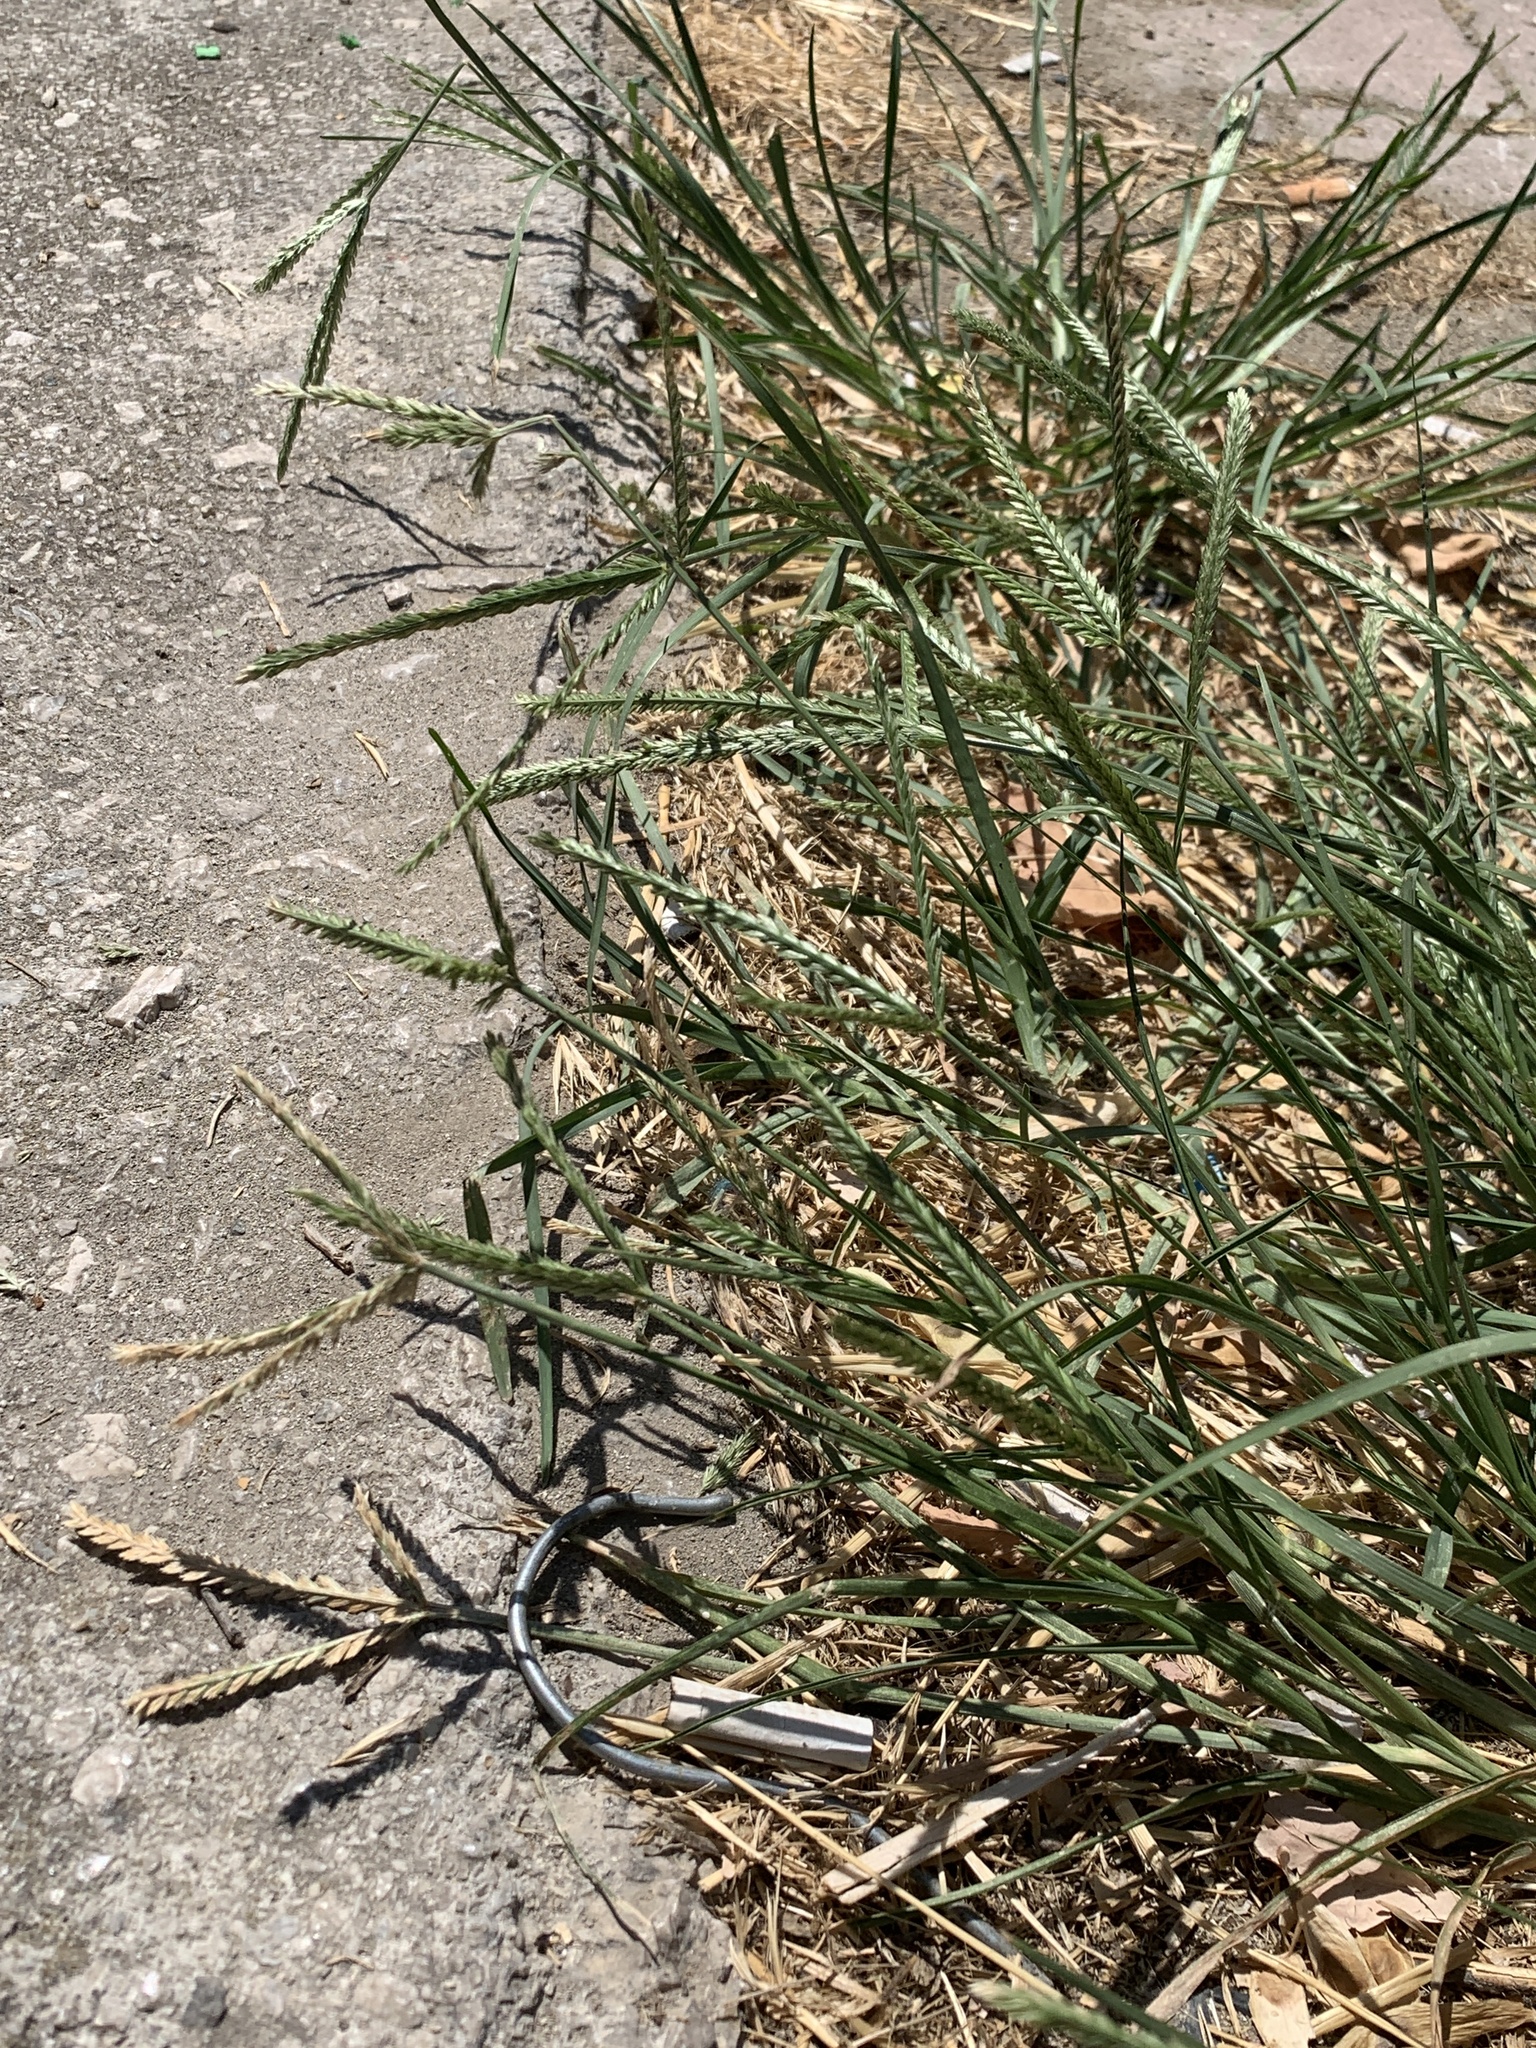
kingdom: Plantae
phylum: Tracheophyta
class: Liliopsida
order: Poales
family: Poaceae
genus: Eleusine
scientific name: Eleusine indica
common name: Yard-grass
